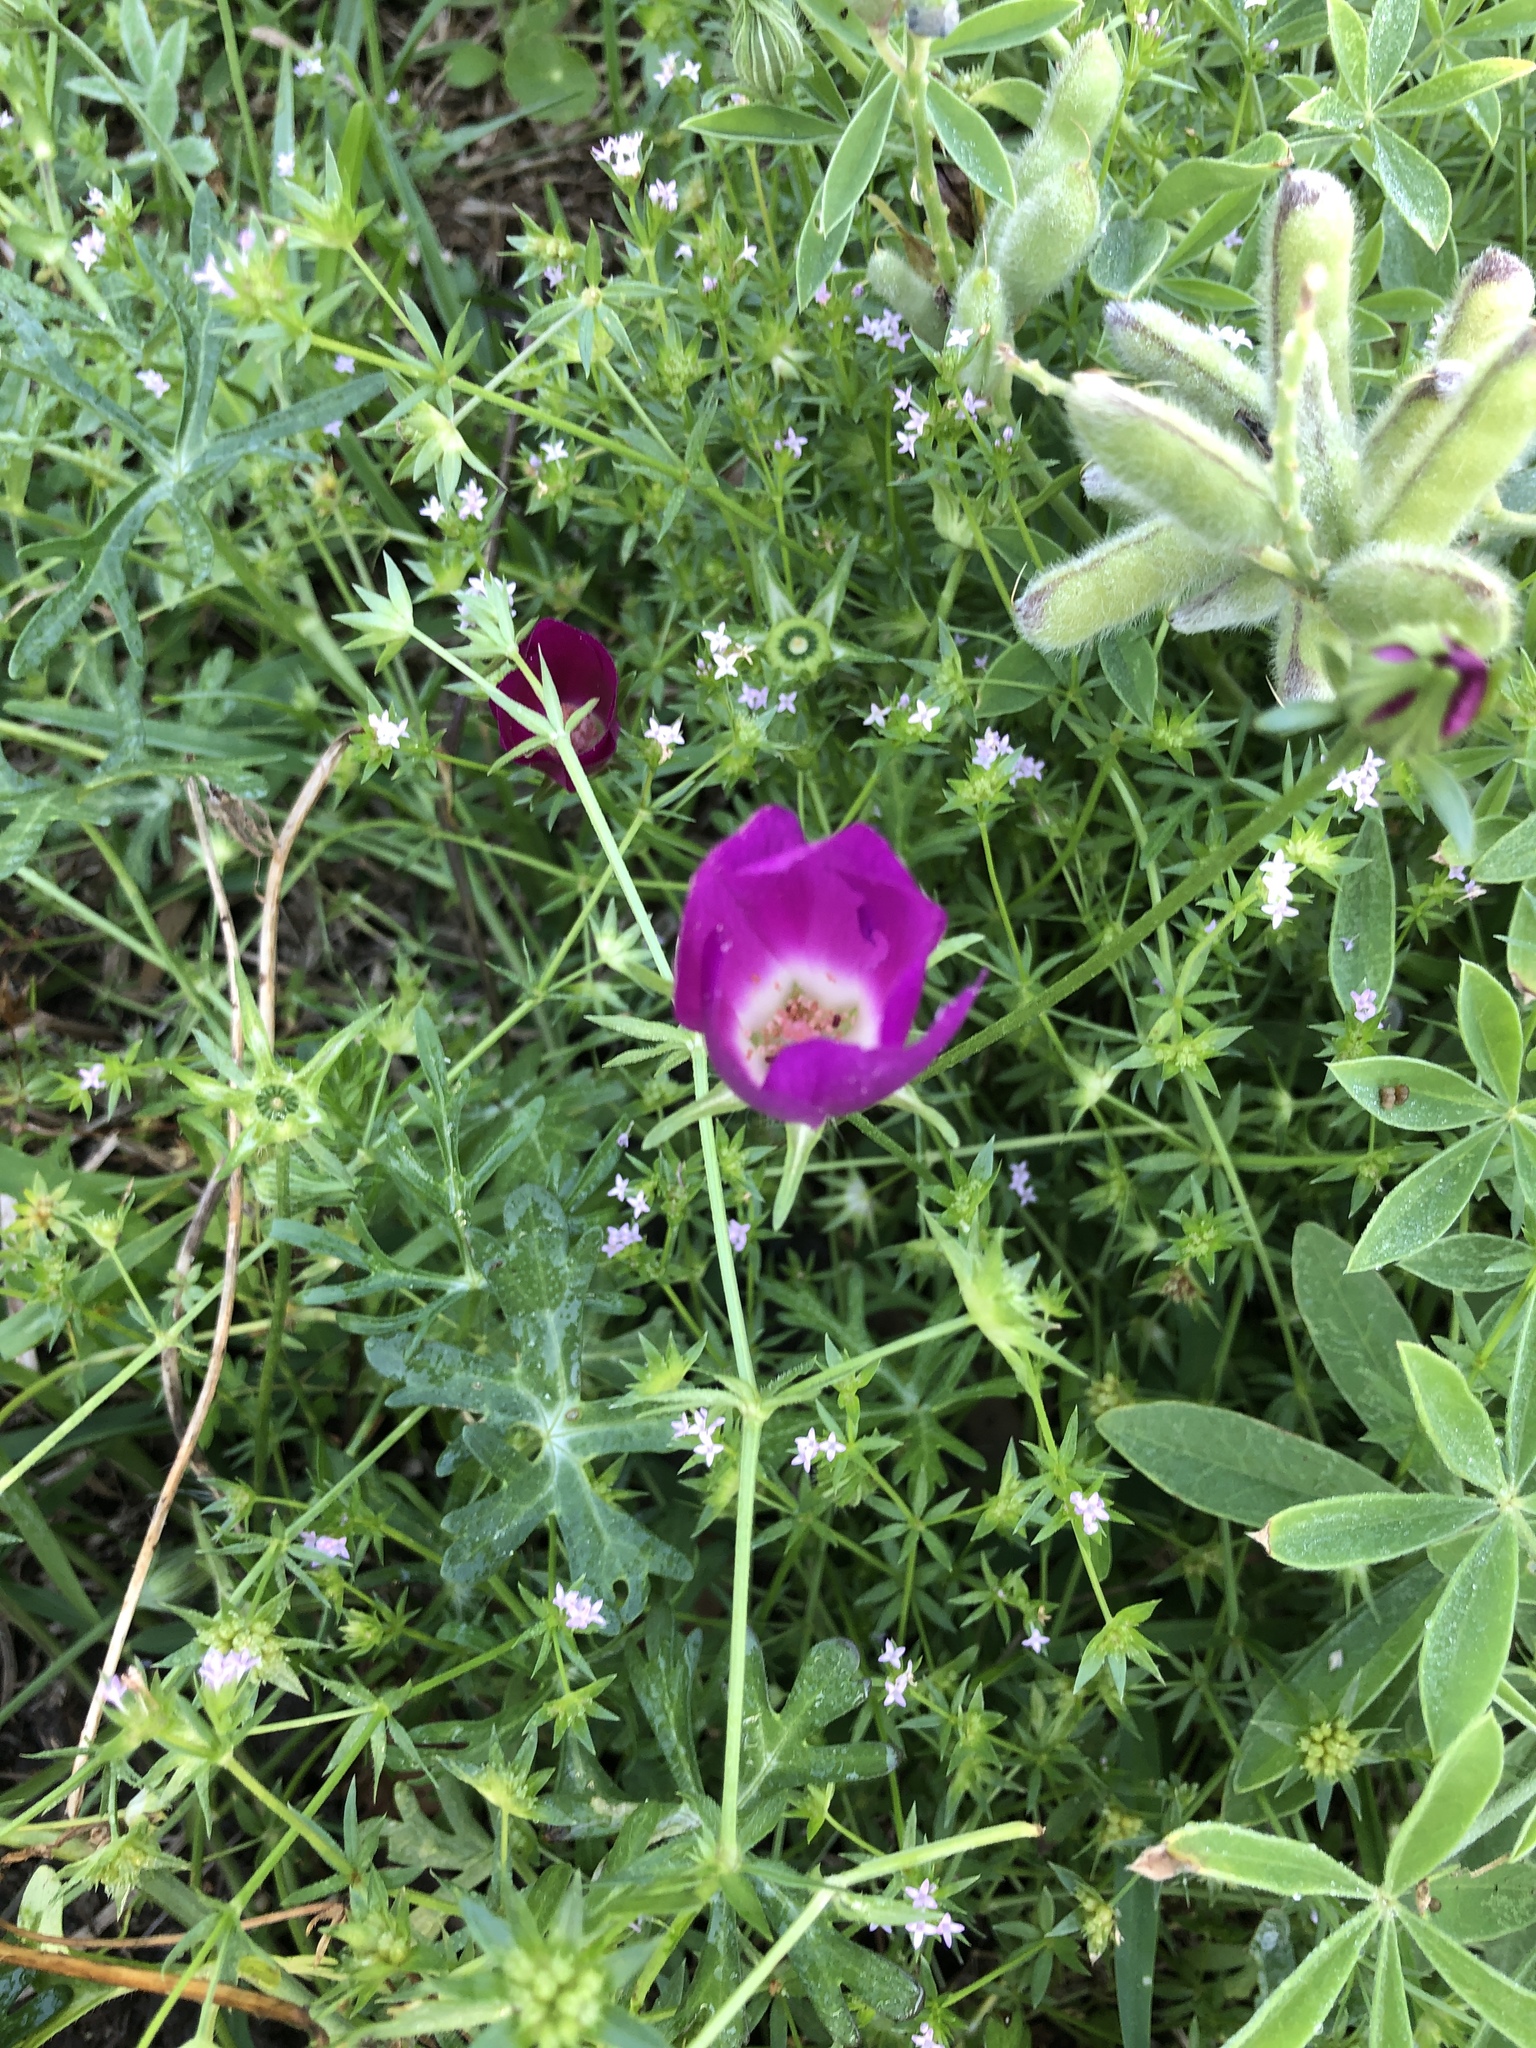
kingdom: Plantae
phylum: Tracheophyta
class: Magnoliopsida
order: Malvales
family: Malvaceae
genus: Callirhoe
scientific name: Callirhoe involucrata
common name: Purple poppy-mallow
